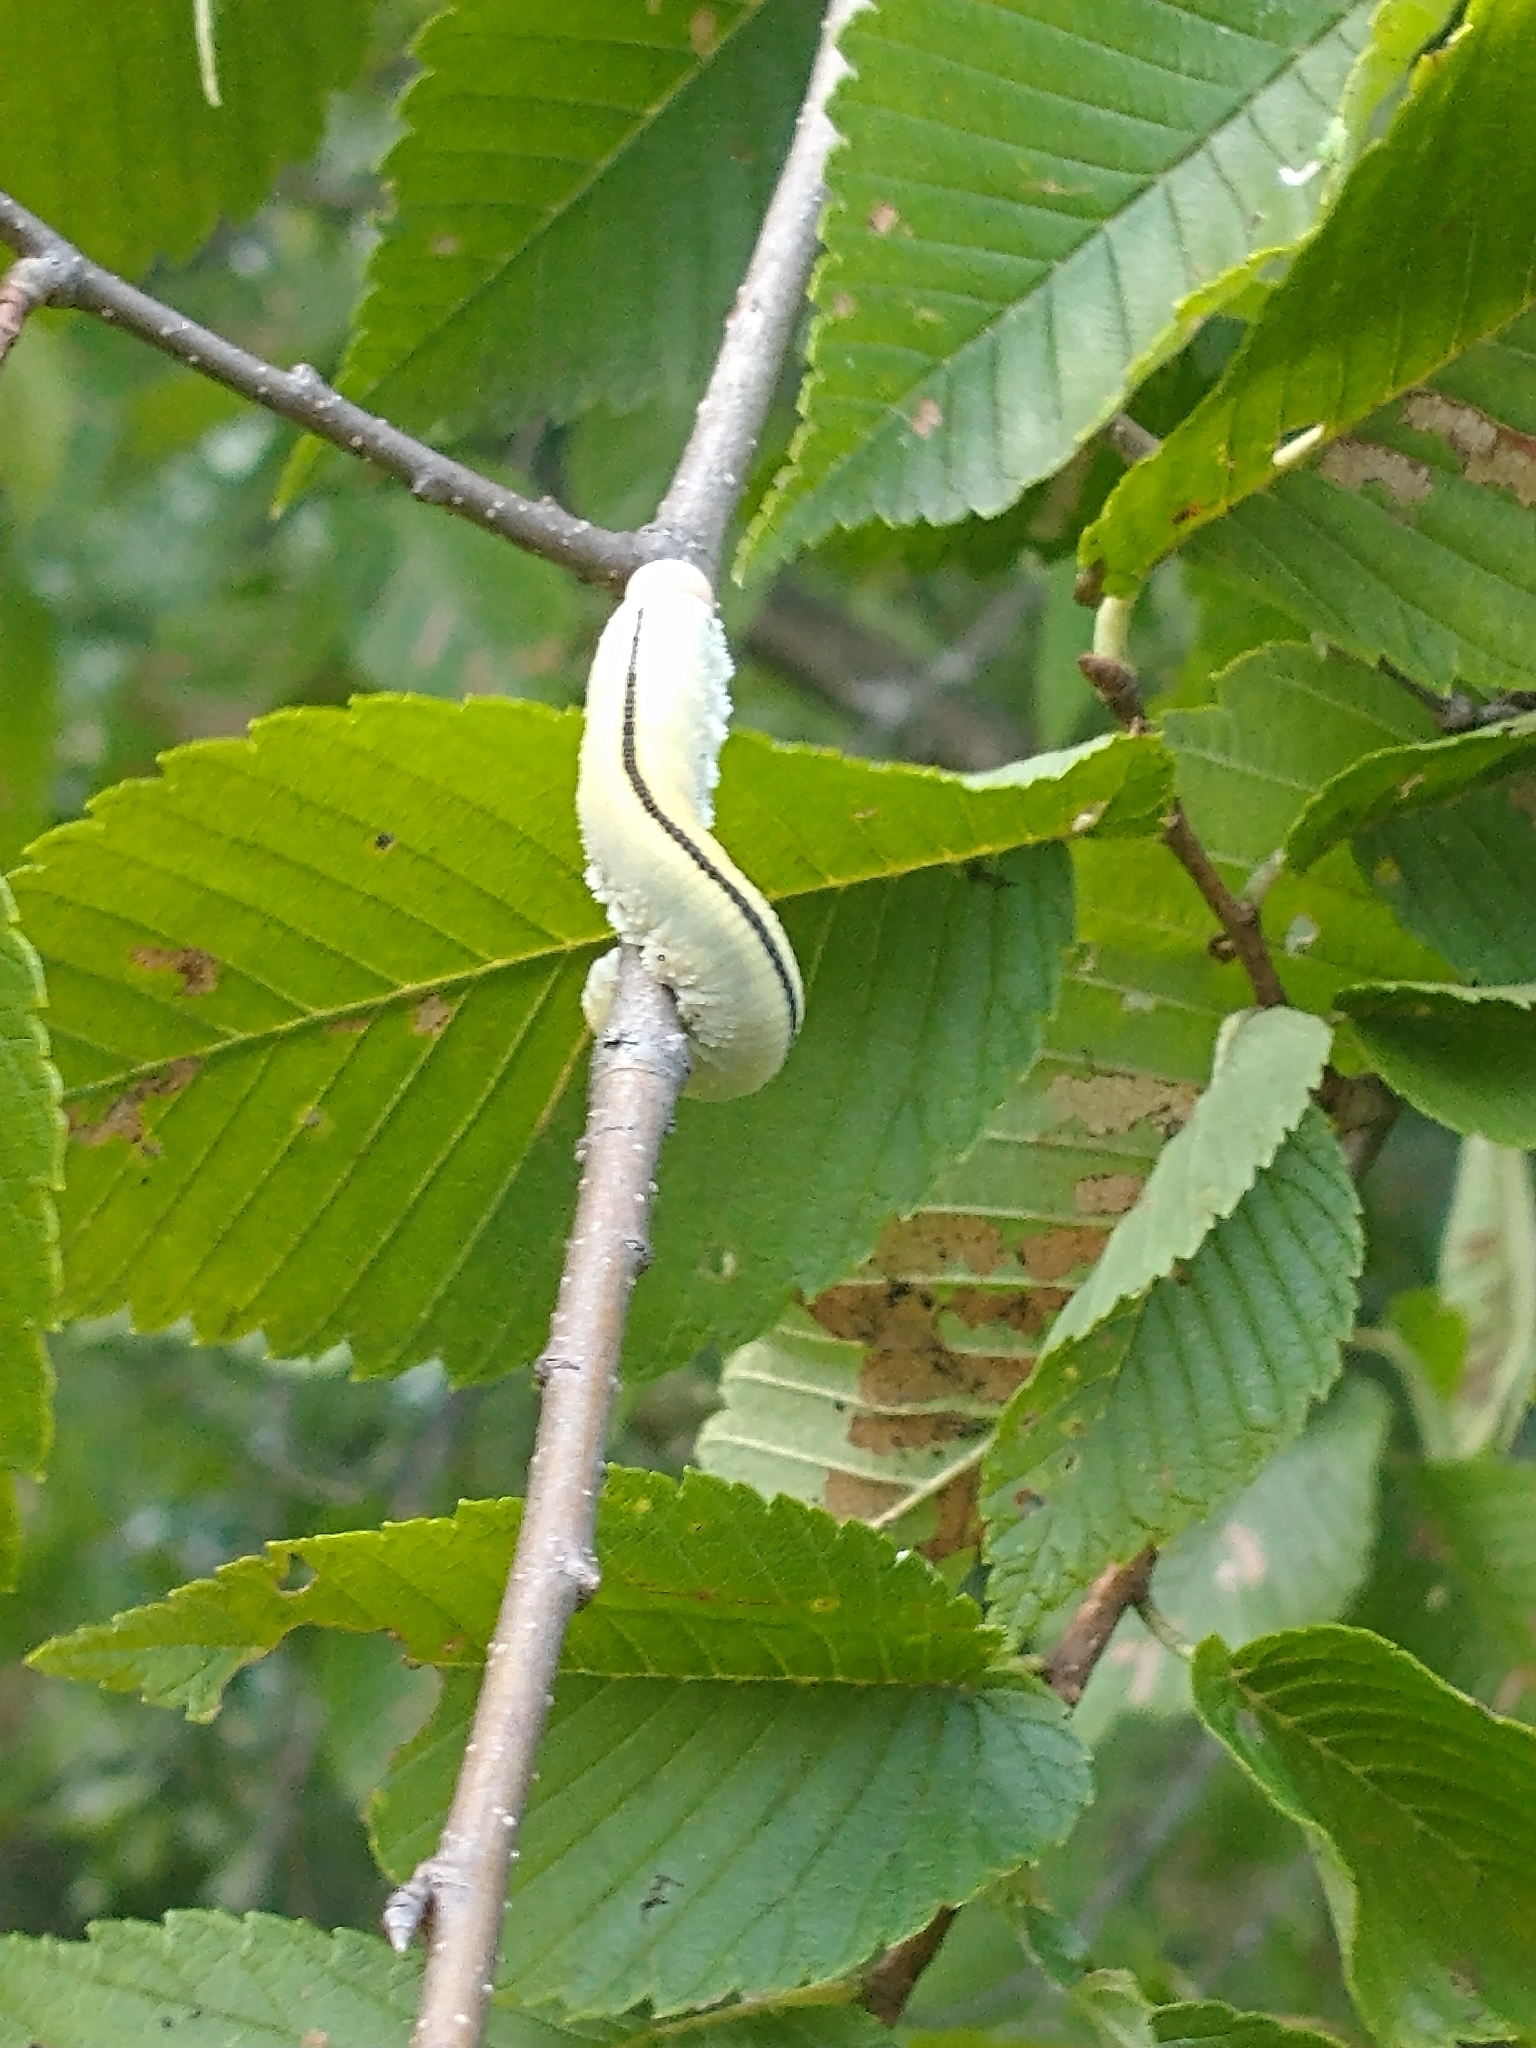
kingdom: Animalia
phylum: Arthropoda
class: Insecta
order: Hymenoptera
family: Cimbicidae
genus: Cimbex
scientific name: Cimbex americana
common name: Elm sawfly
